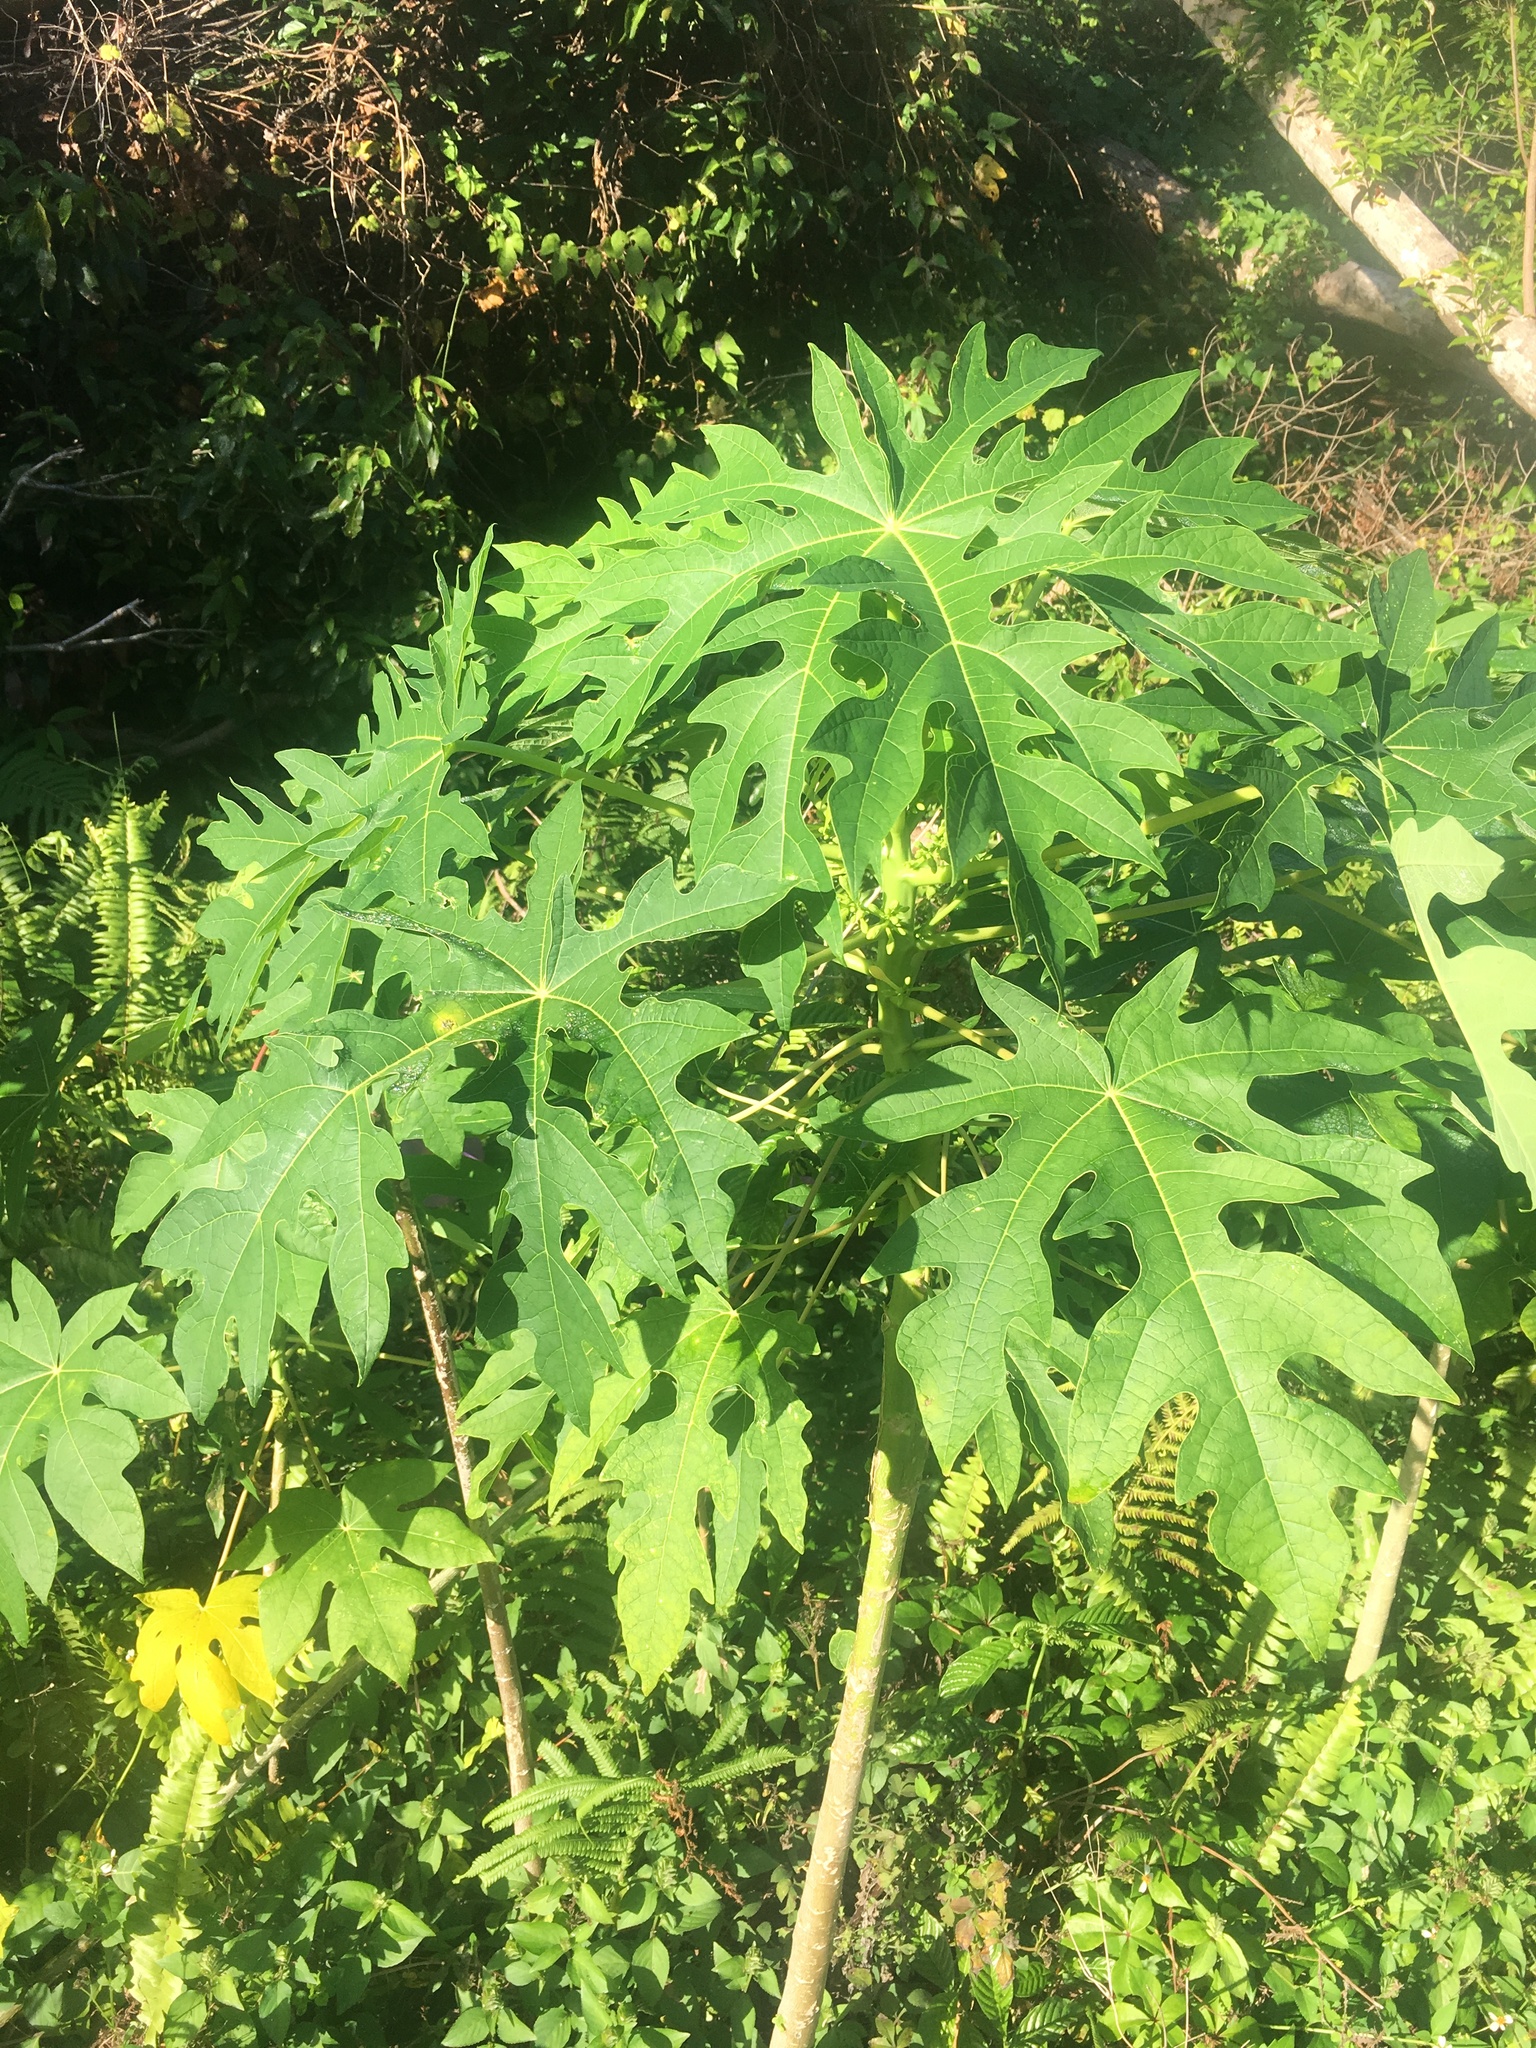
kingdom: Plantae
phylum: Tracheophyta
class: Magnoliopsida
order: Brassicales
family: Caricaceae
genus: Carica
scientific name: Carica papaya
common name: Papaya
